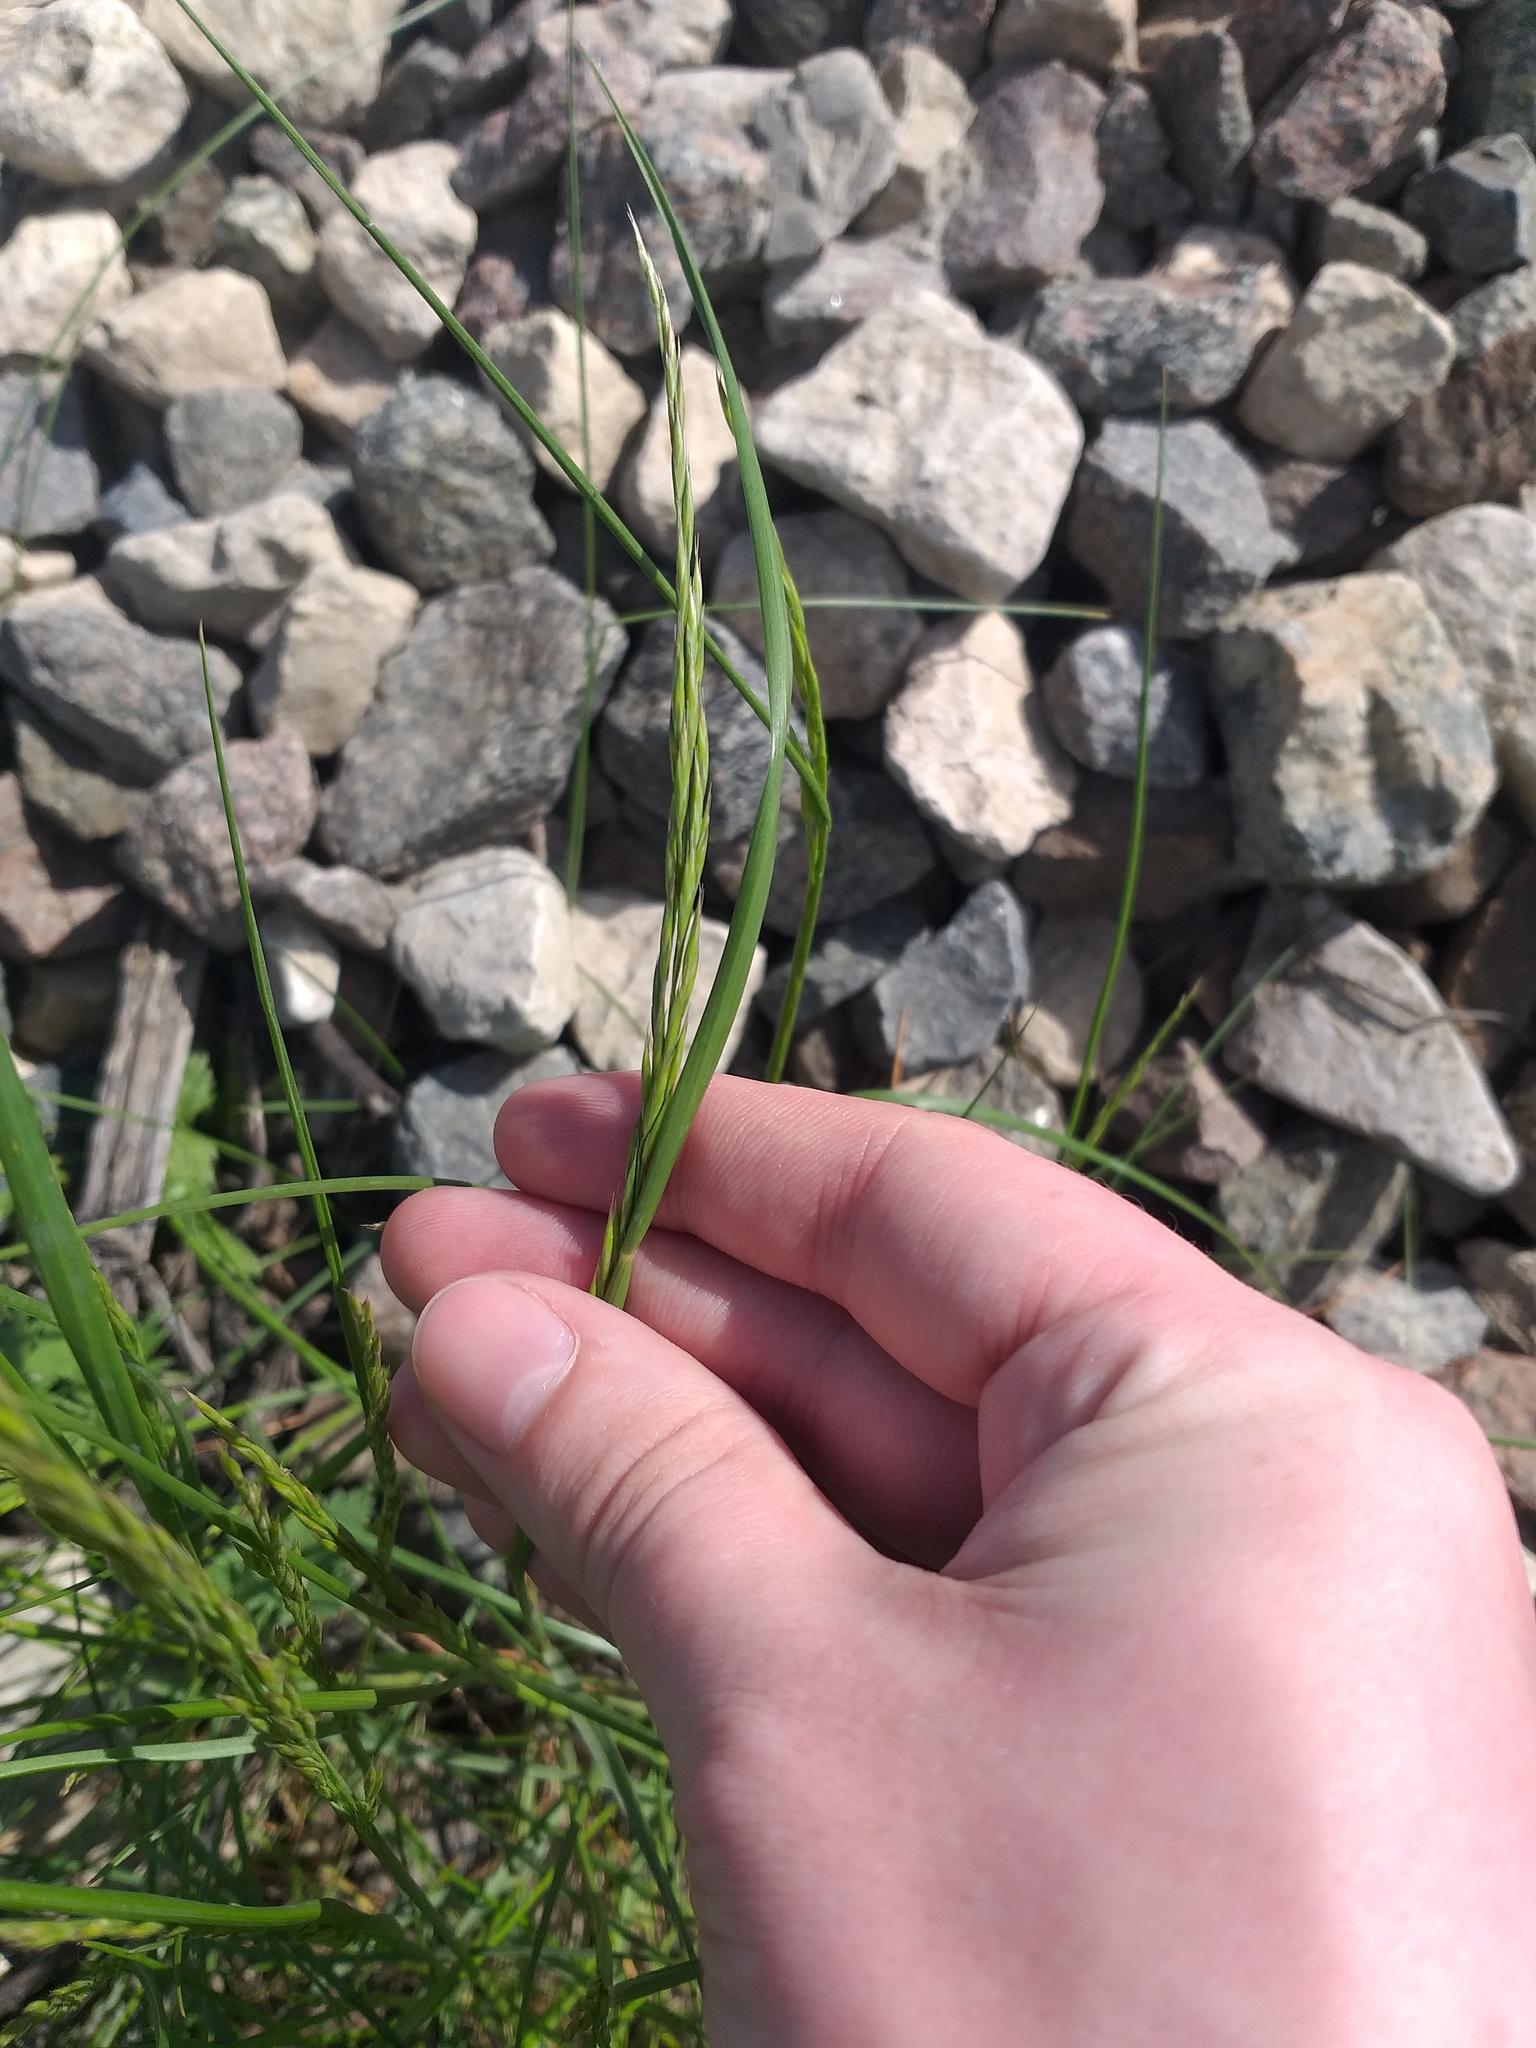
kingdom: Plantae
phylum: Tracheophyta
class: Liliopsida
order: Poales
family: Poaceae
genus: Festuca
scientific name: Festuca rubra
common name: Red fescue
